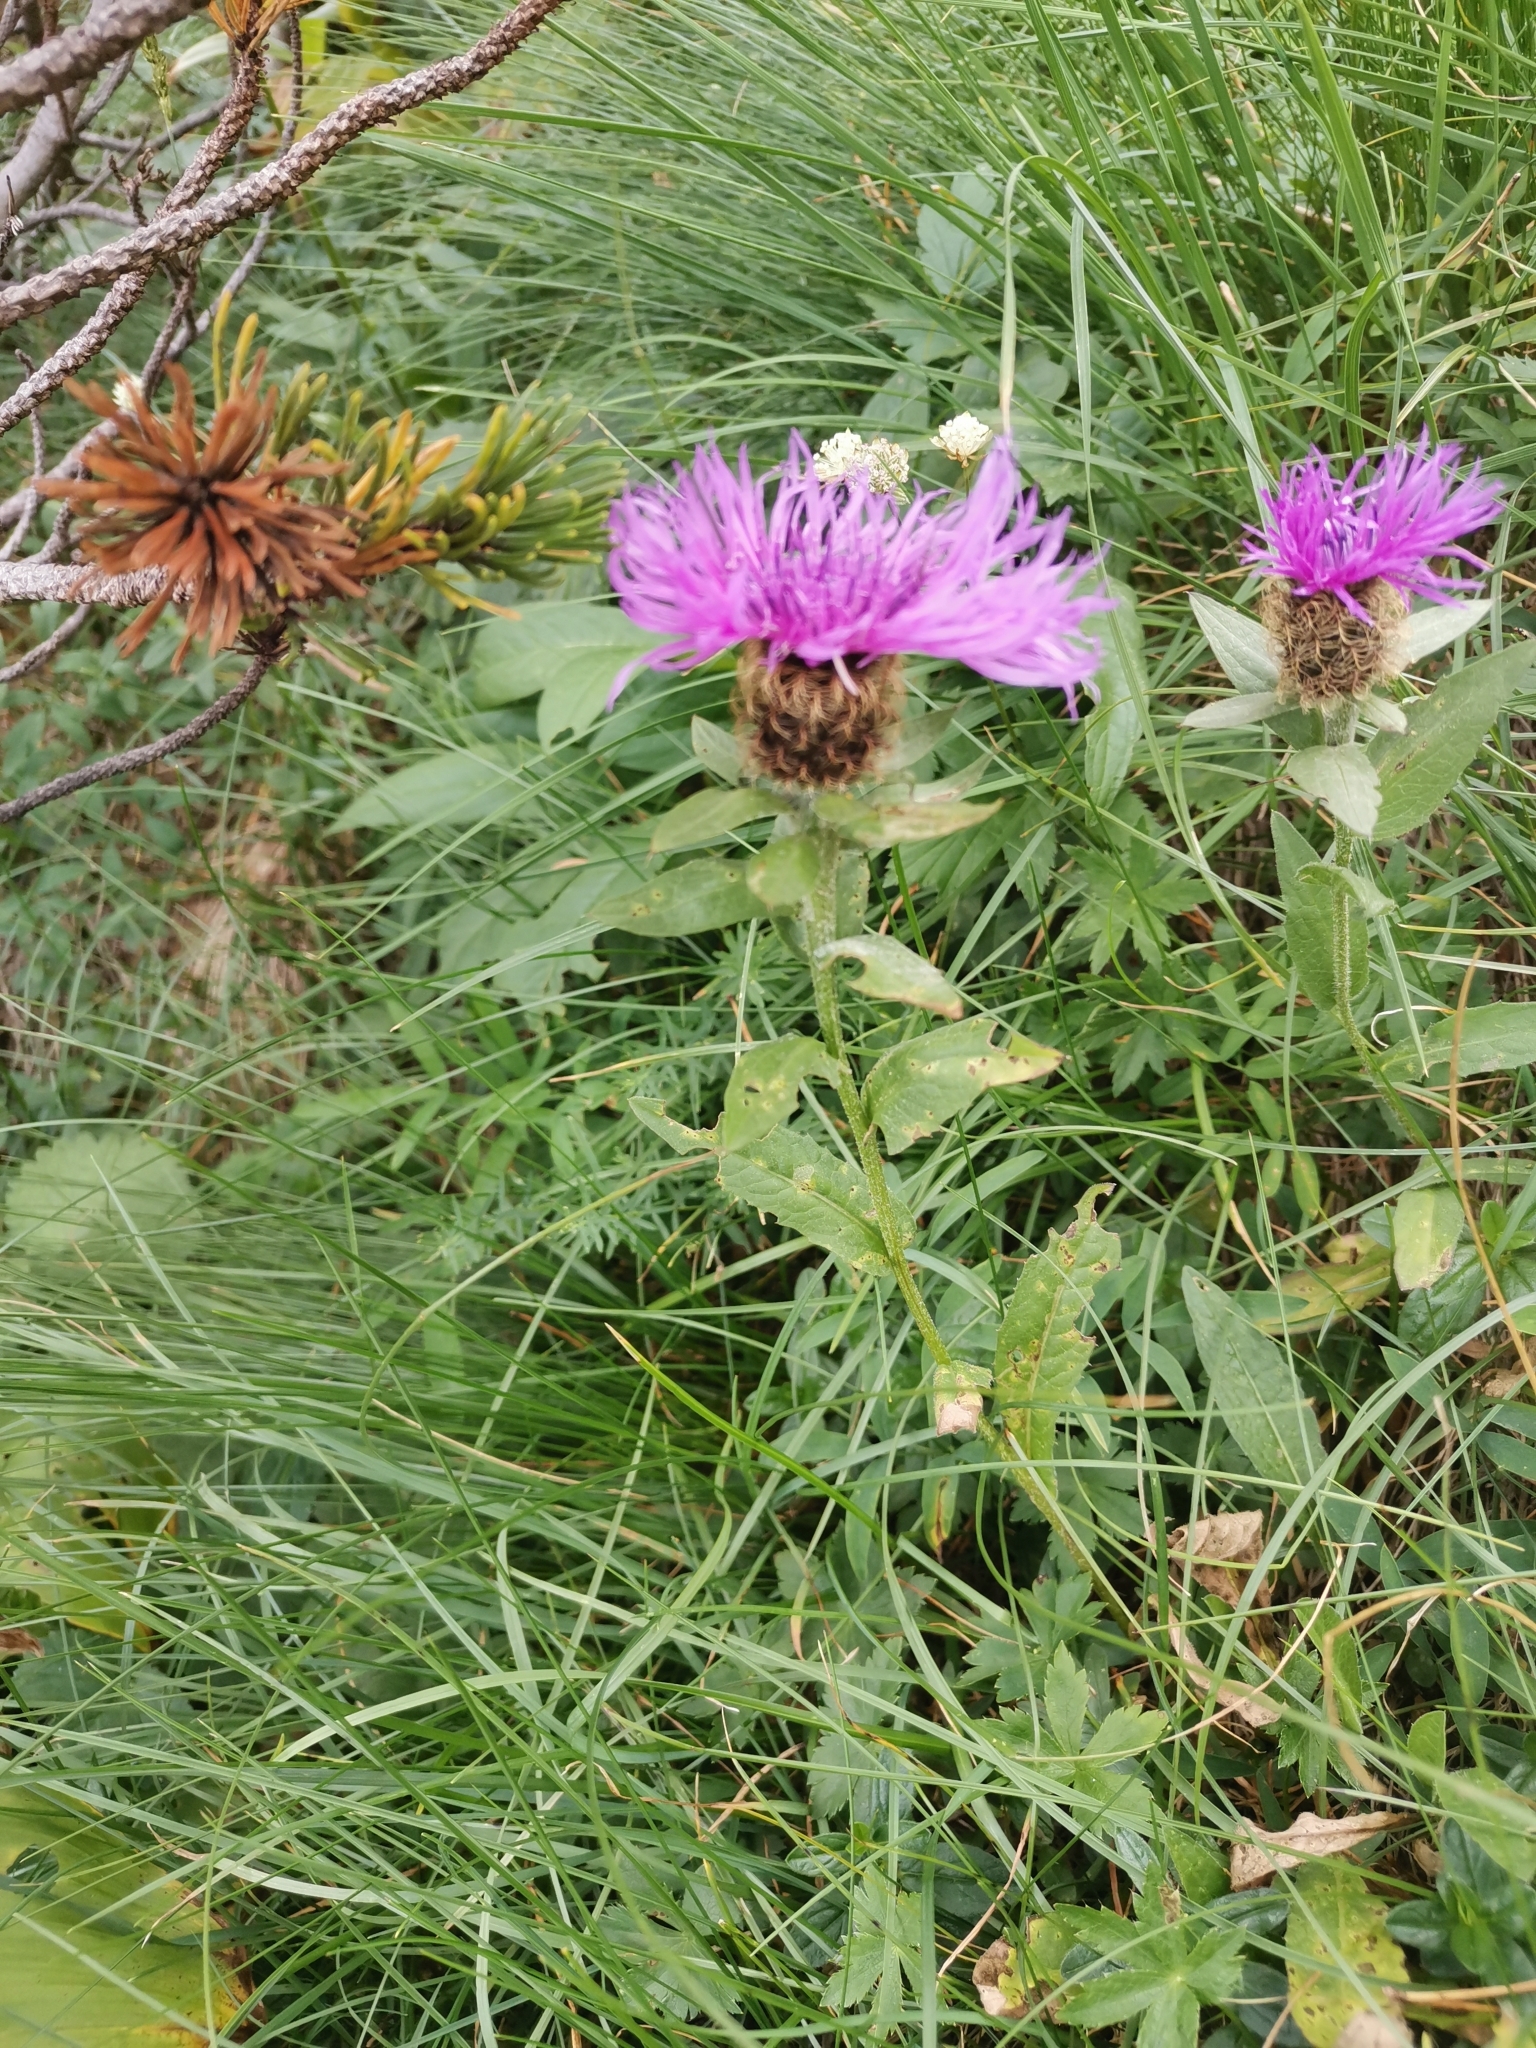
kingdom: Plantae
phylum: Tracheophyta
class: Magnoliopsida
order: Asterales
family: Asteraceae
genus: Centaurea
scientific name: Centaurea nervosa
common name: Singleflower knapweed
